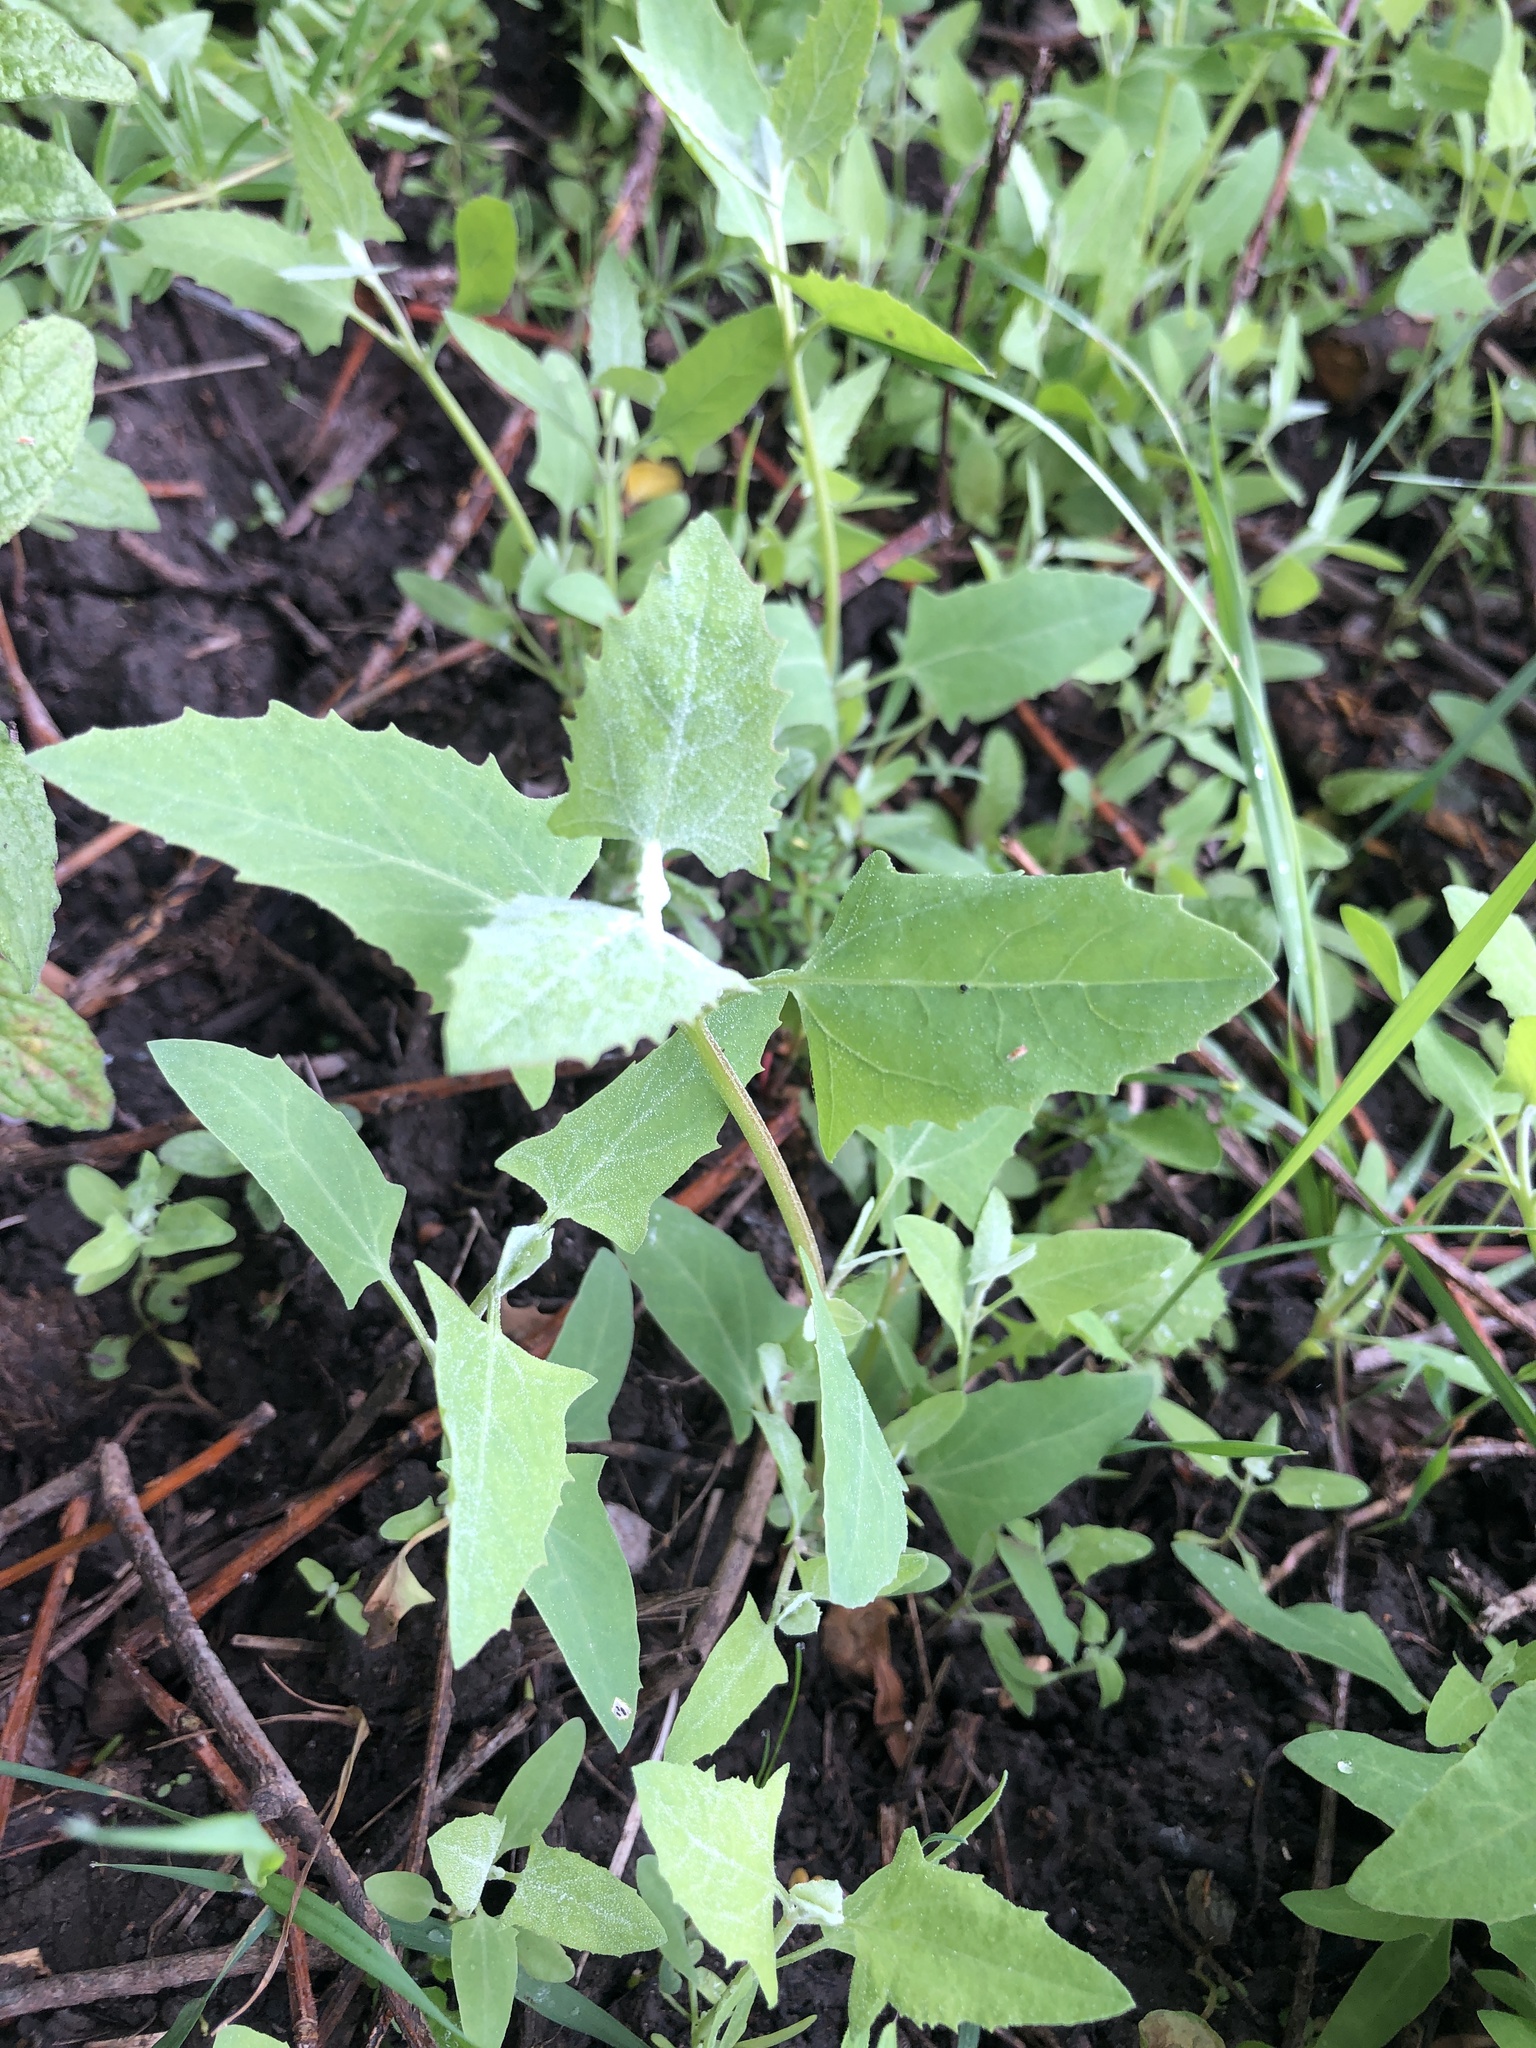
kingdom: Plantae
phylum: Tracheophyta
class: Magnoliopsida
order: Caryophyllales
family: Amaranthaceae
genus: Chenopodium
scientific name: Chenopodium album
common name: Fat-hen
